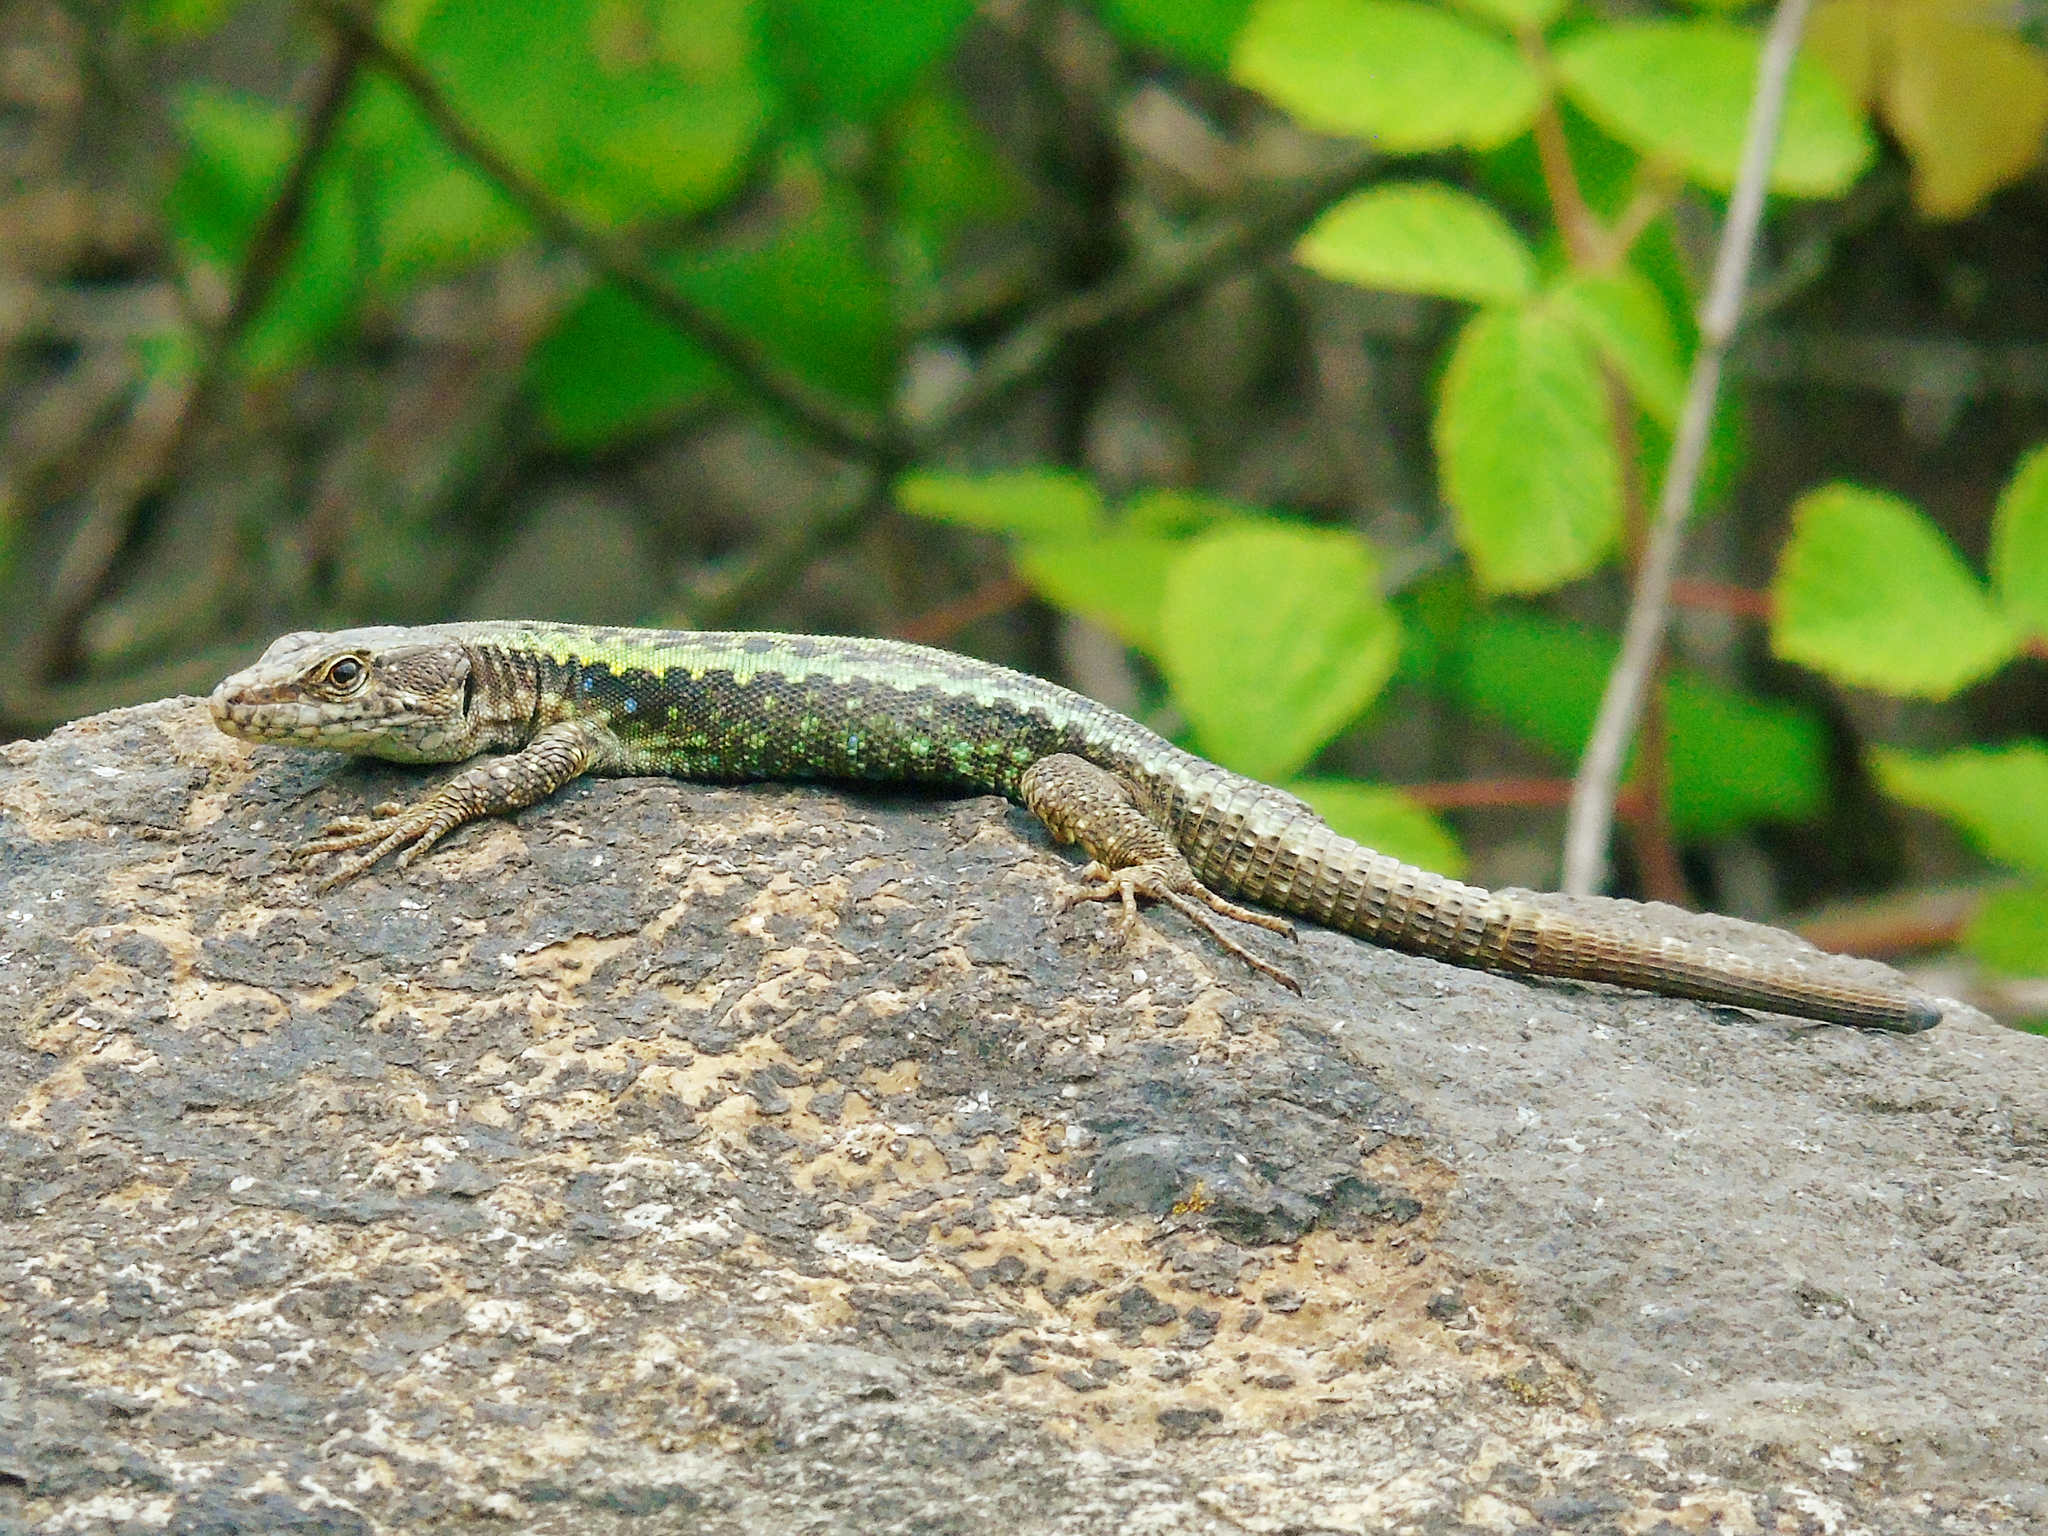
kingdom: Animalia
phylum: Chordata
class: Squamata
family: Lacertidae
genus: Darevskia
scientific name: Darevskia rudis
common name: Spiny-tailed lizard
